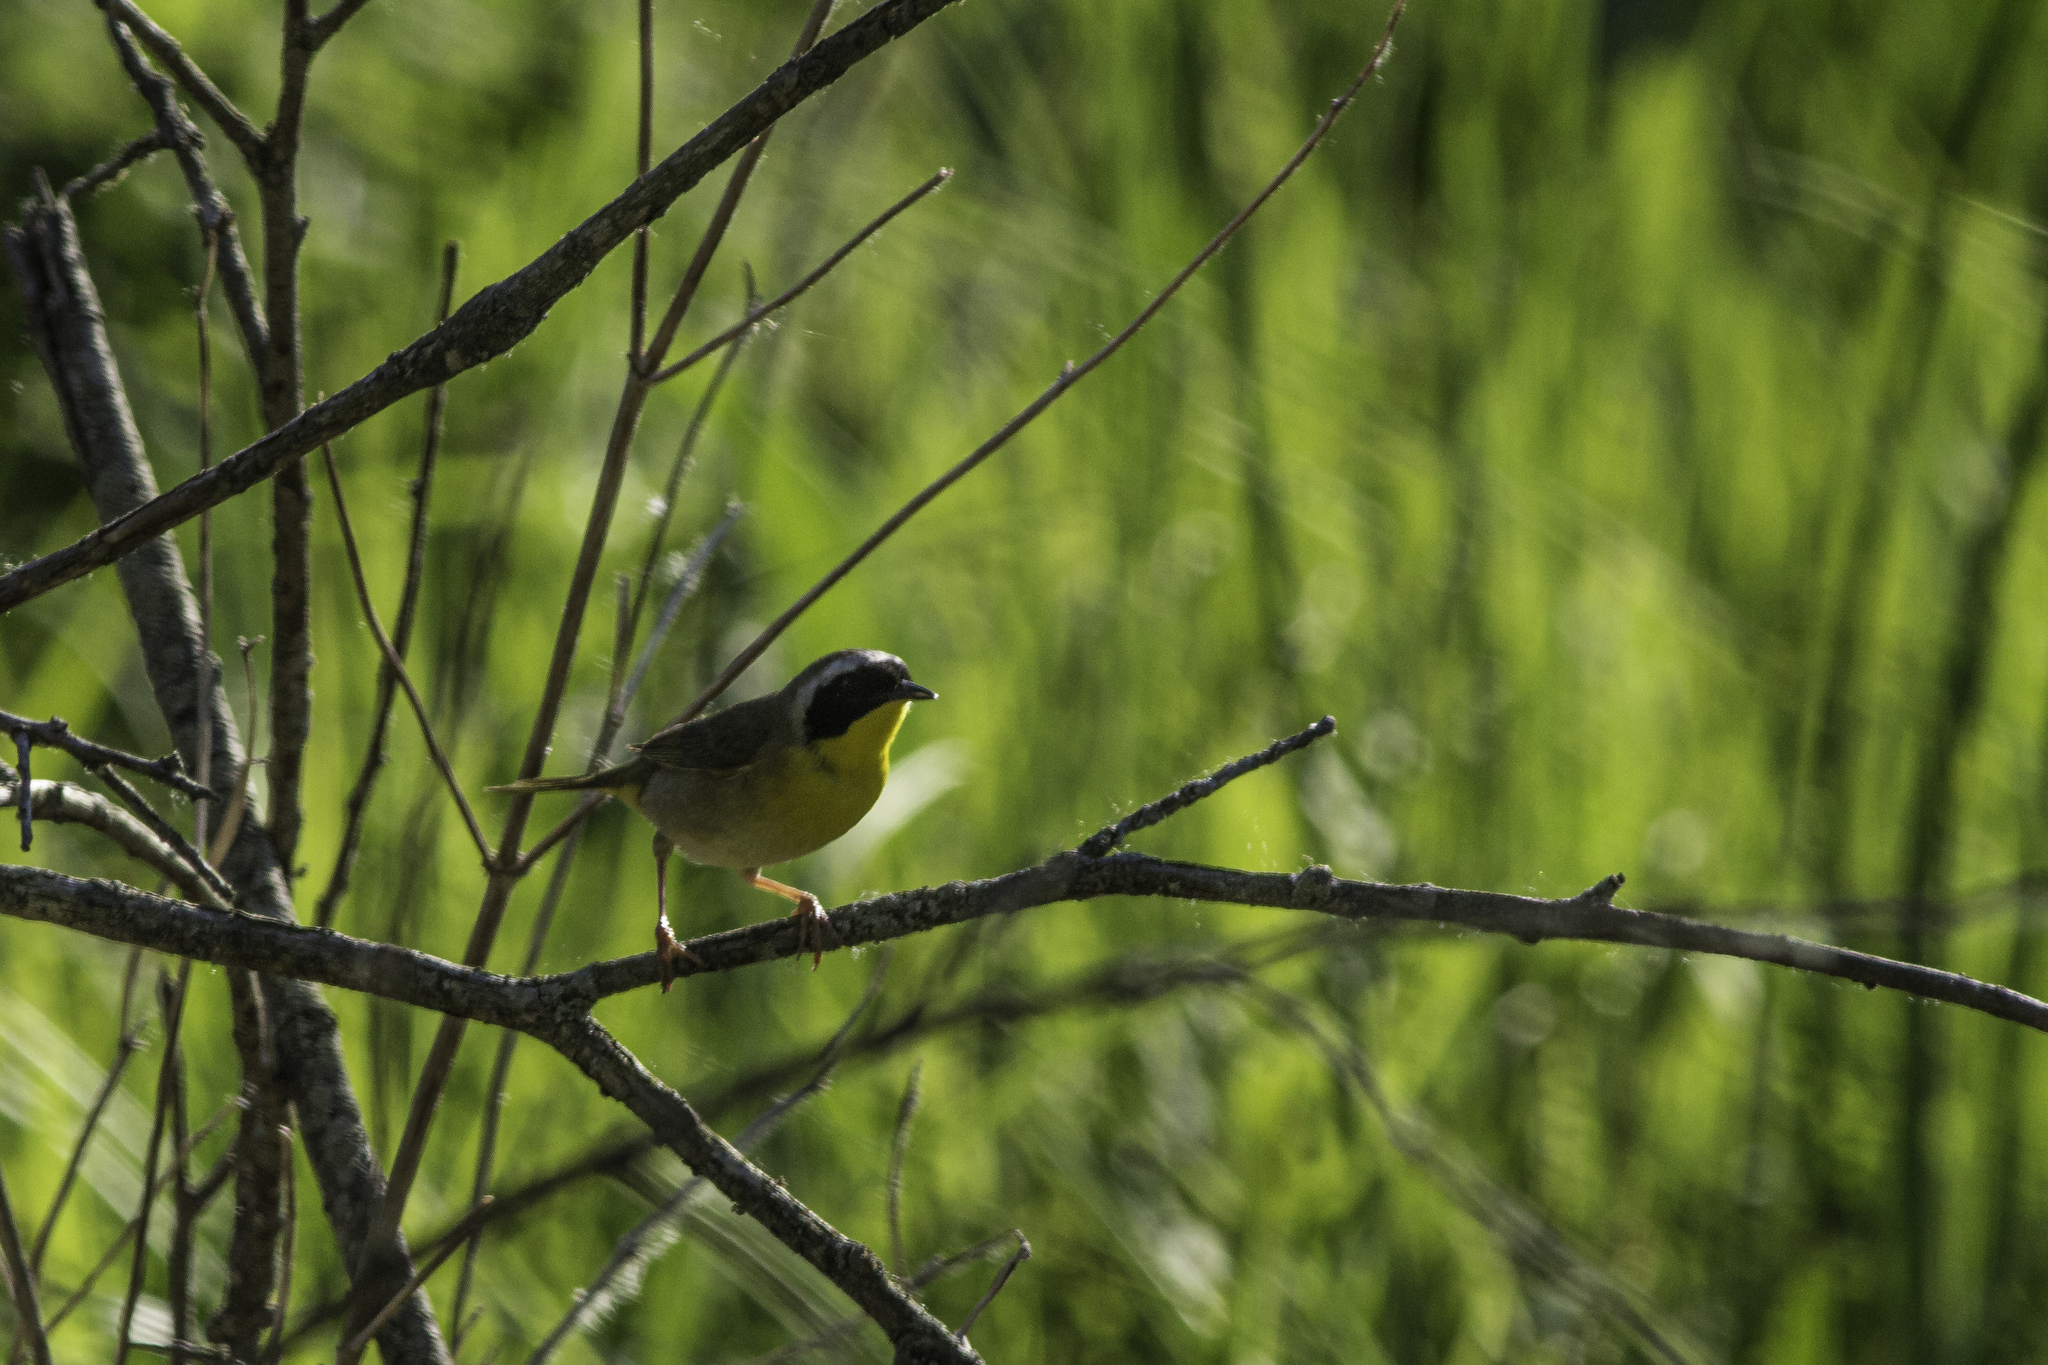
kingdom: Animalia
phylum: Chordata
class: Aves
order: Passeriformes
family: Parulidae
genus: Geothlypis
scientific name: Geothlypis trichas
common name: Common yellowthroat
